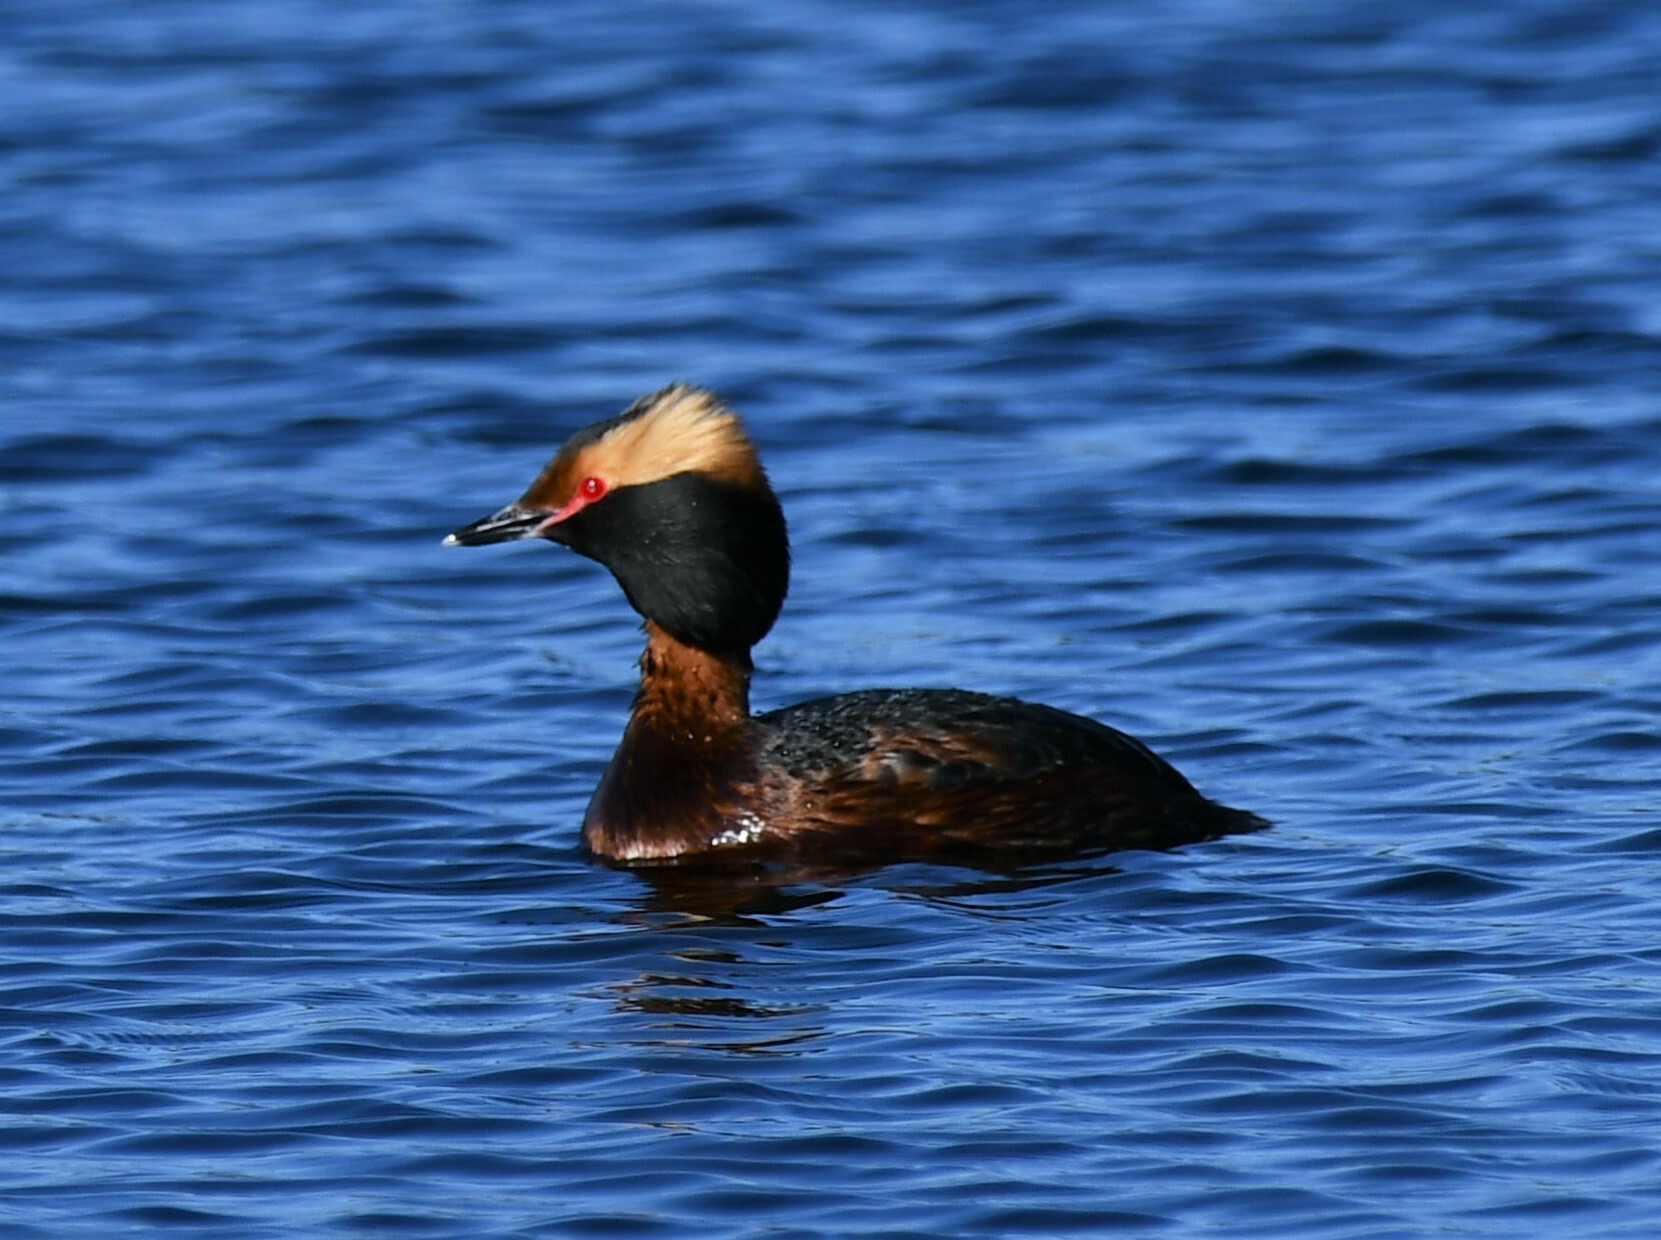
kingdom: Animalia
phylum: Chordata
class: Aves
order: Podicipediformes
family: Podicipedidae
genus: Podiceps
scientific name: Podiceps auritus
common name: Horned grebe
